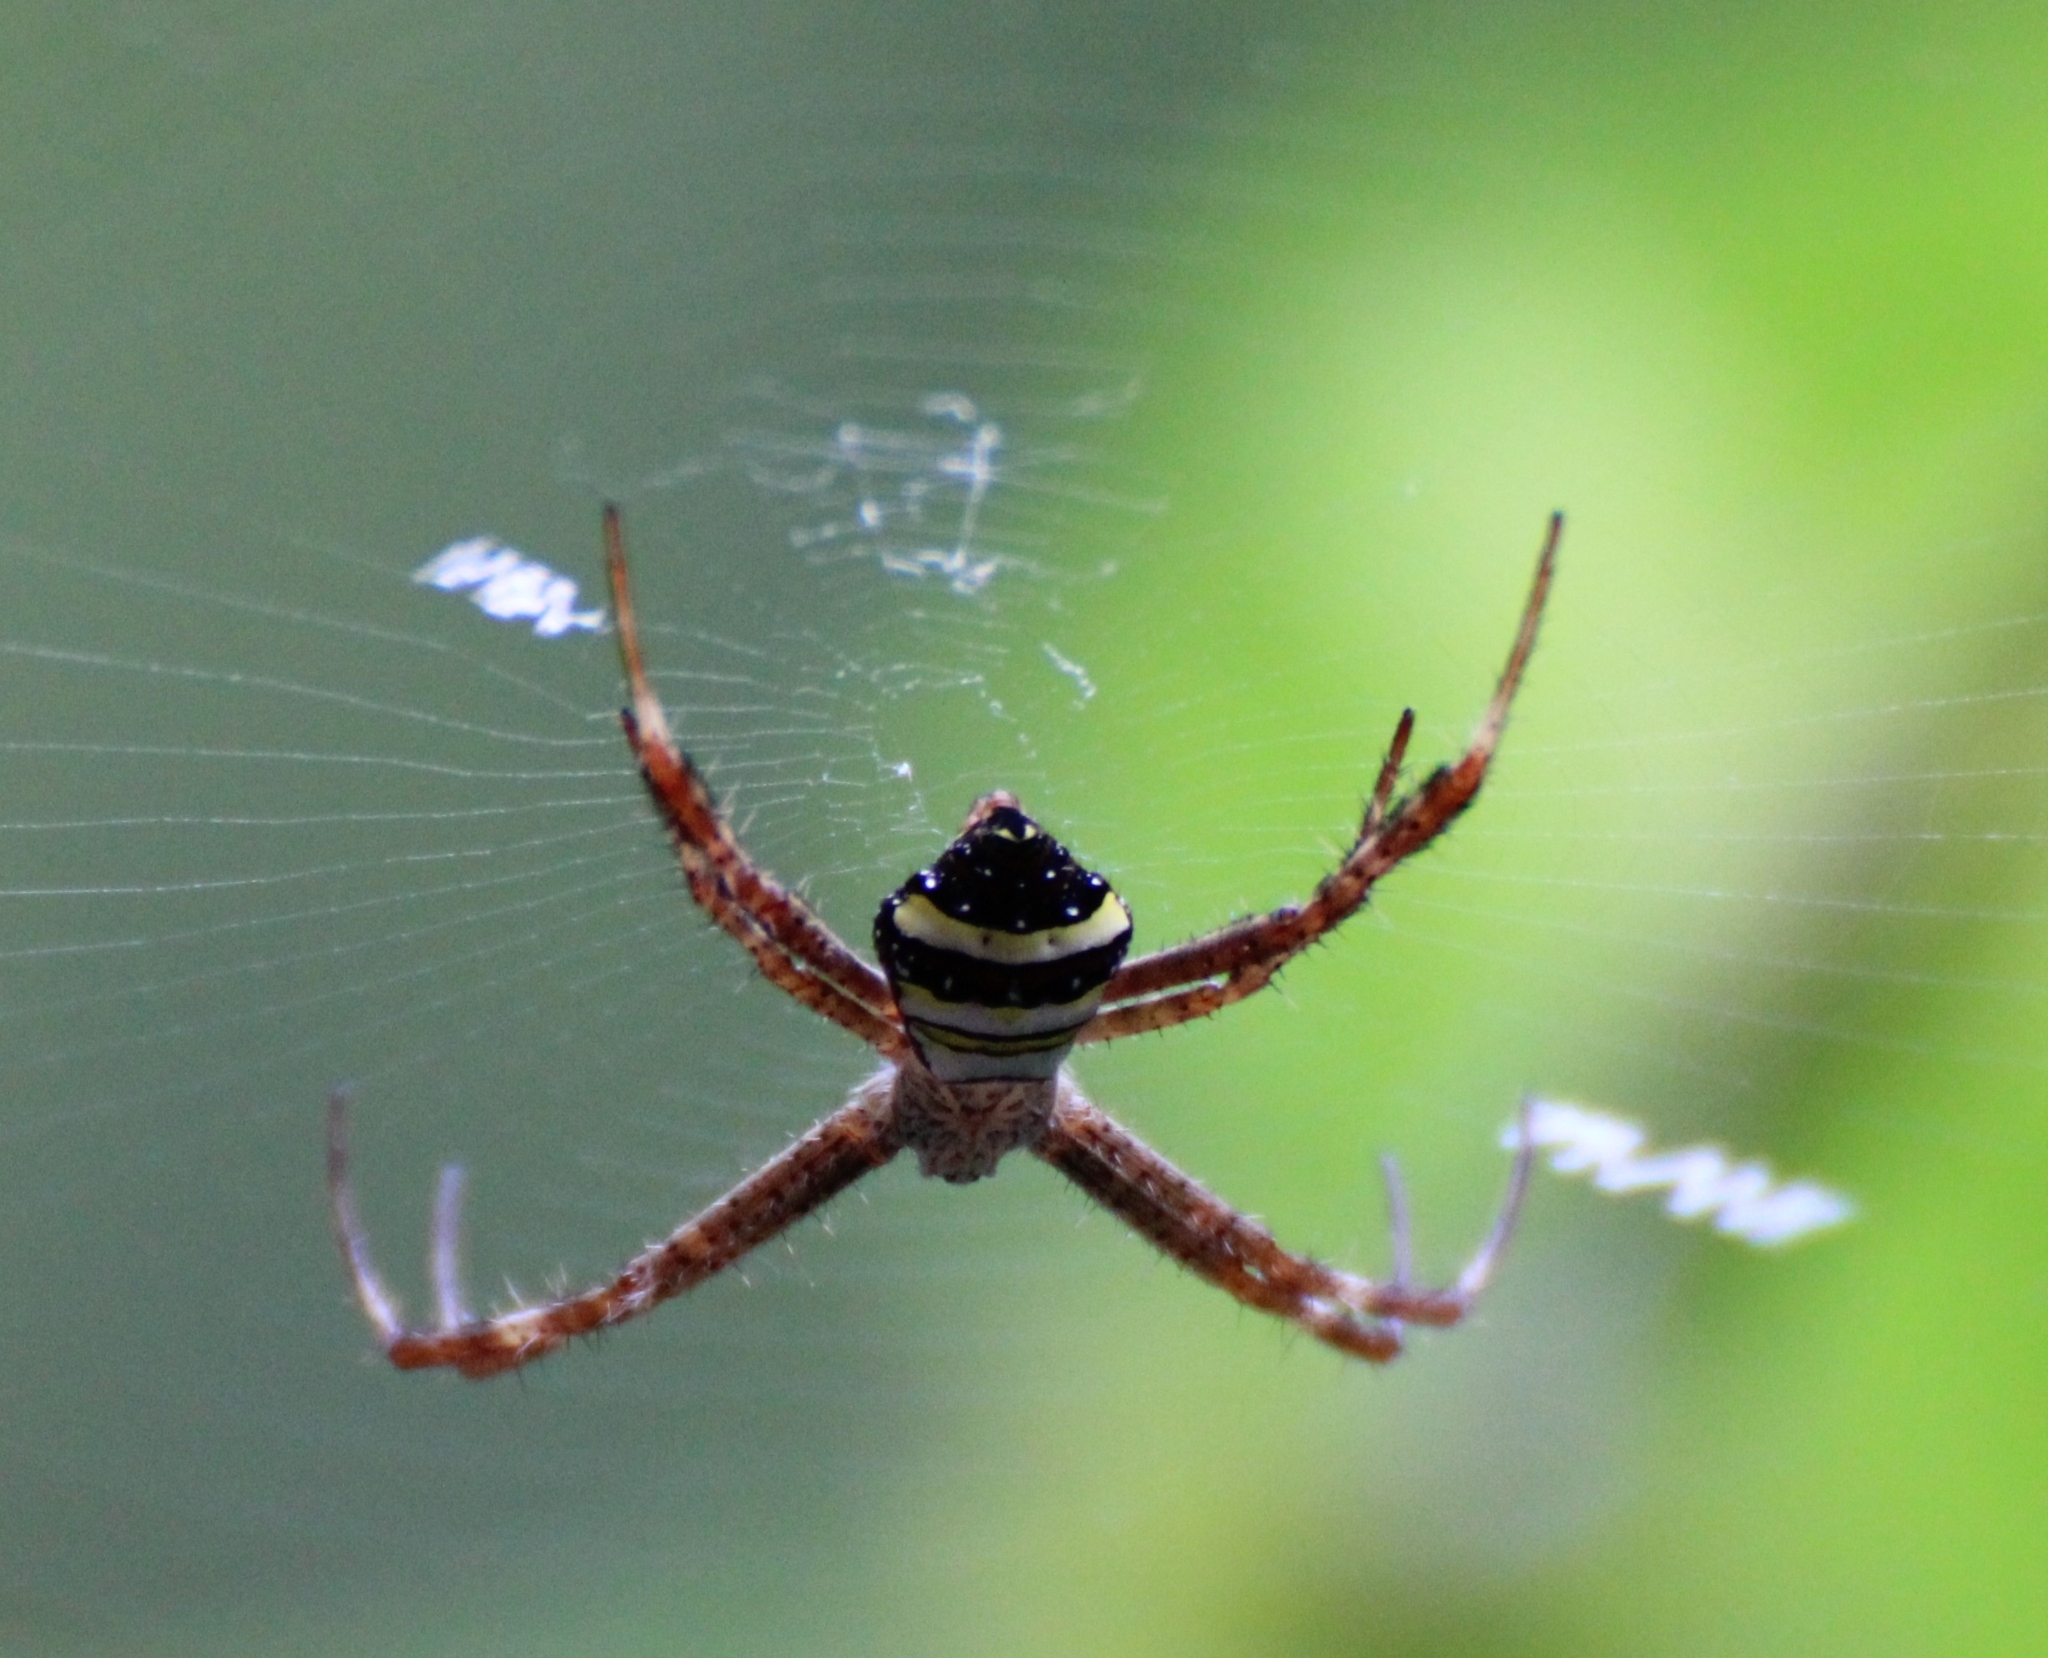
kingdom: Animalia
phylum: Arthropoda
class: Arachnida
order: Araneae
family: Araneidae
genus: Argiope
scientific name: Argiope versicolor
